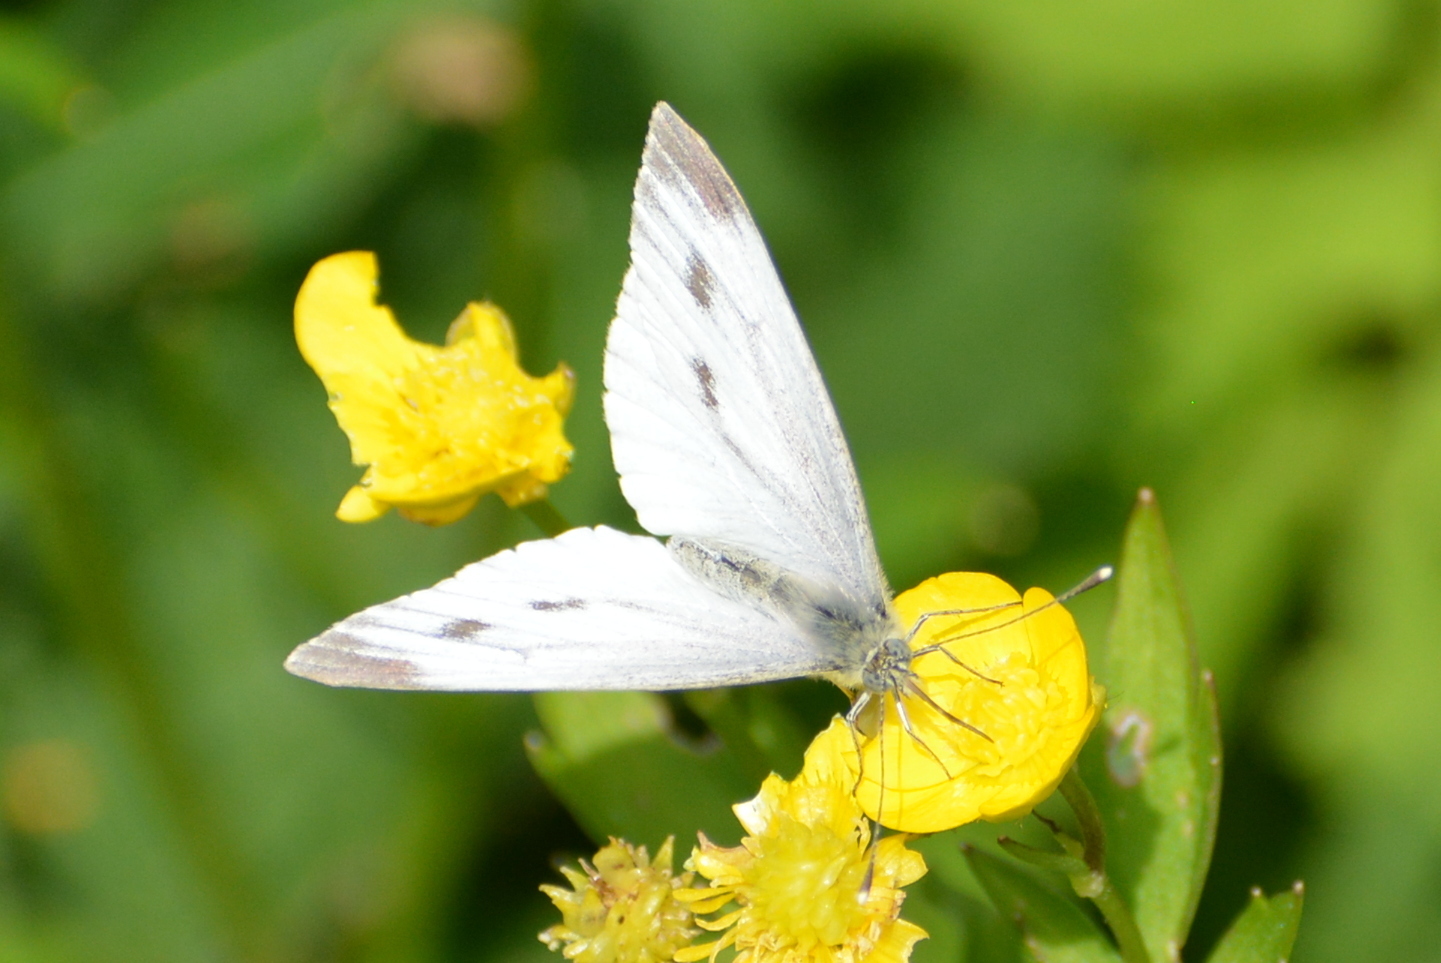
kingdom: Animalia
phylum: Arthropoda
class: Insecta
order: Lepidoptera
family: Pieridae
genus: Pieris
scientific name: Pieris napi
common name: Green-veined white
